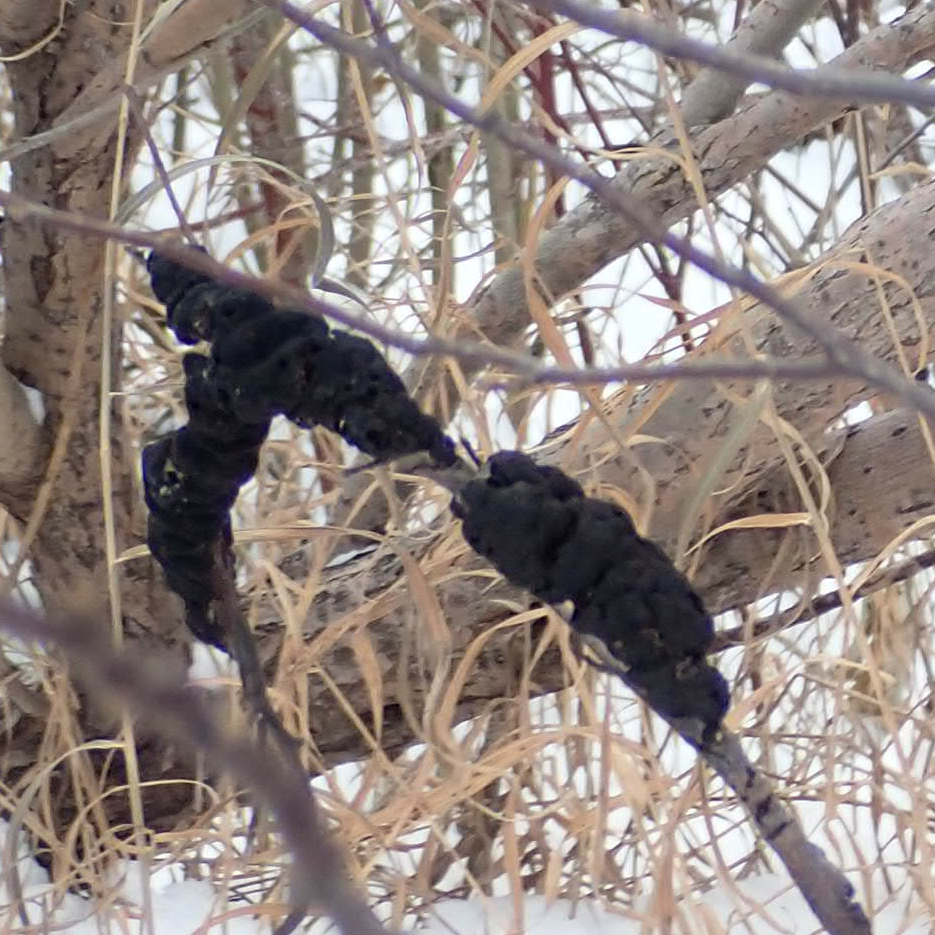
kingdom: Fungi
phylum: Ascomycota
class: Dothideomycetes
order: Venturiales
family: Venturiaceae
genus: Apiosporina
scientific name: Apiosporina morbosa
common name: Black knot
